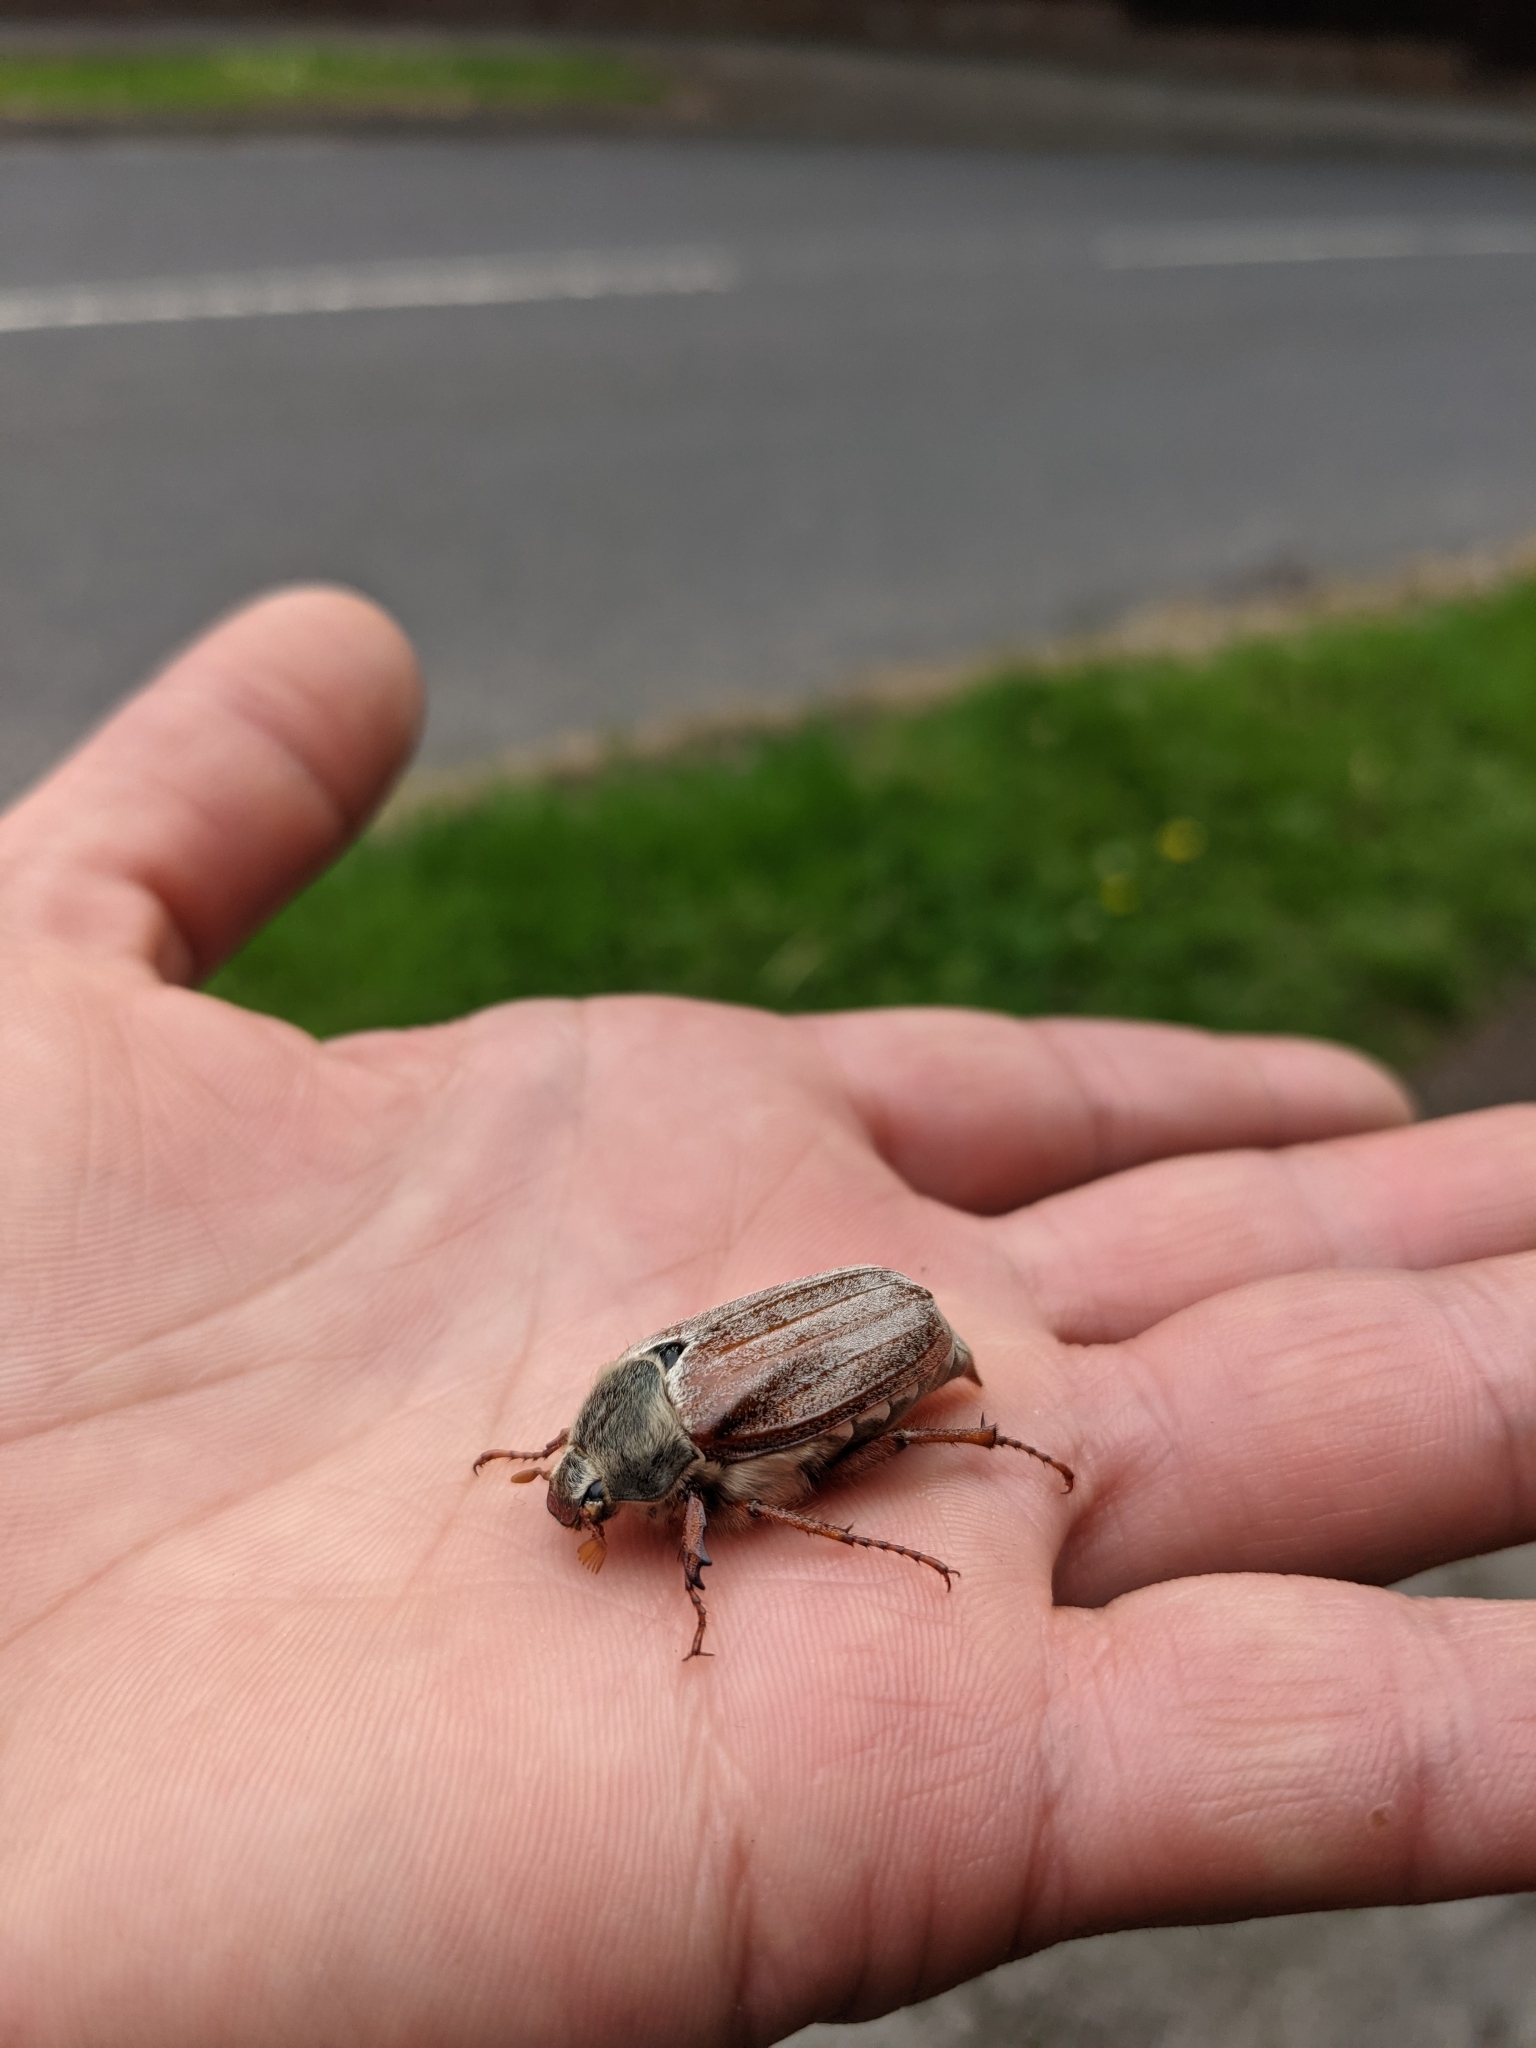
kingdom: Animalia
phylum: Arthropoda
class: Insecta
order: Coleoptera
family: Scarabaeidae
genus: Melolontha
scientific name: Melolontha melolontha
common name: Cockchafer maybeetle
